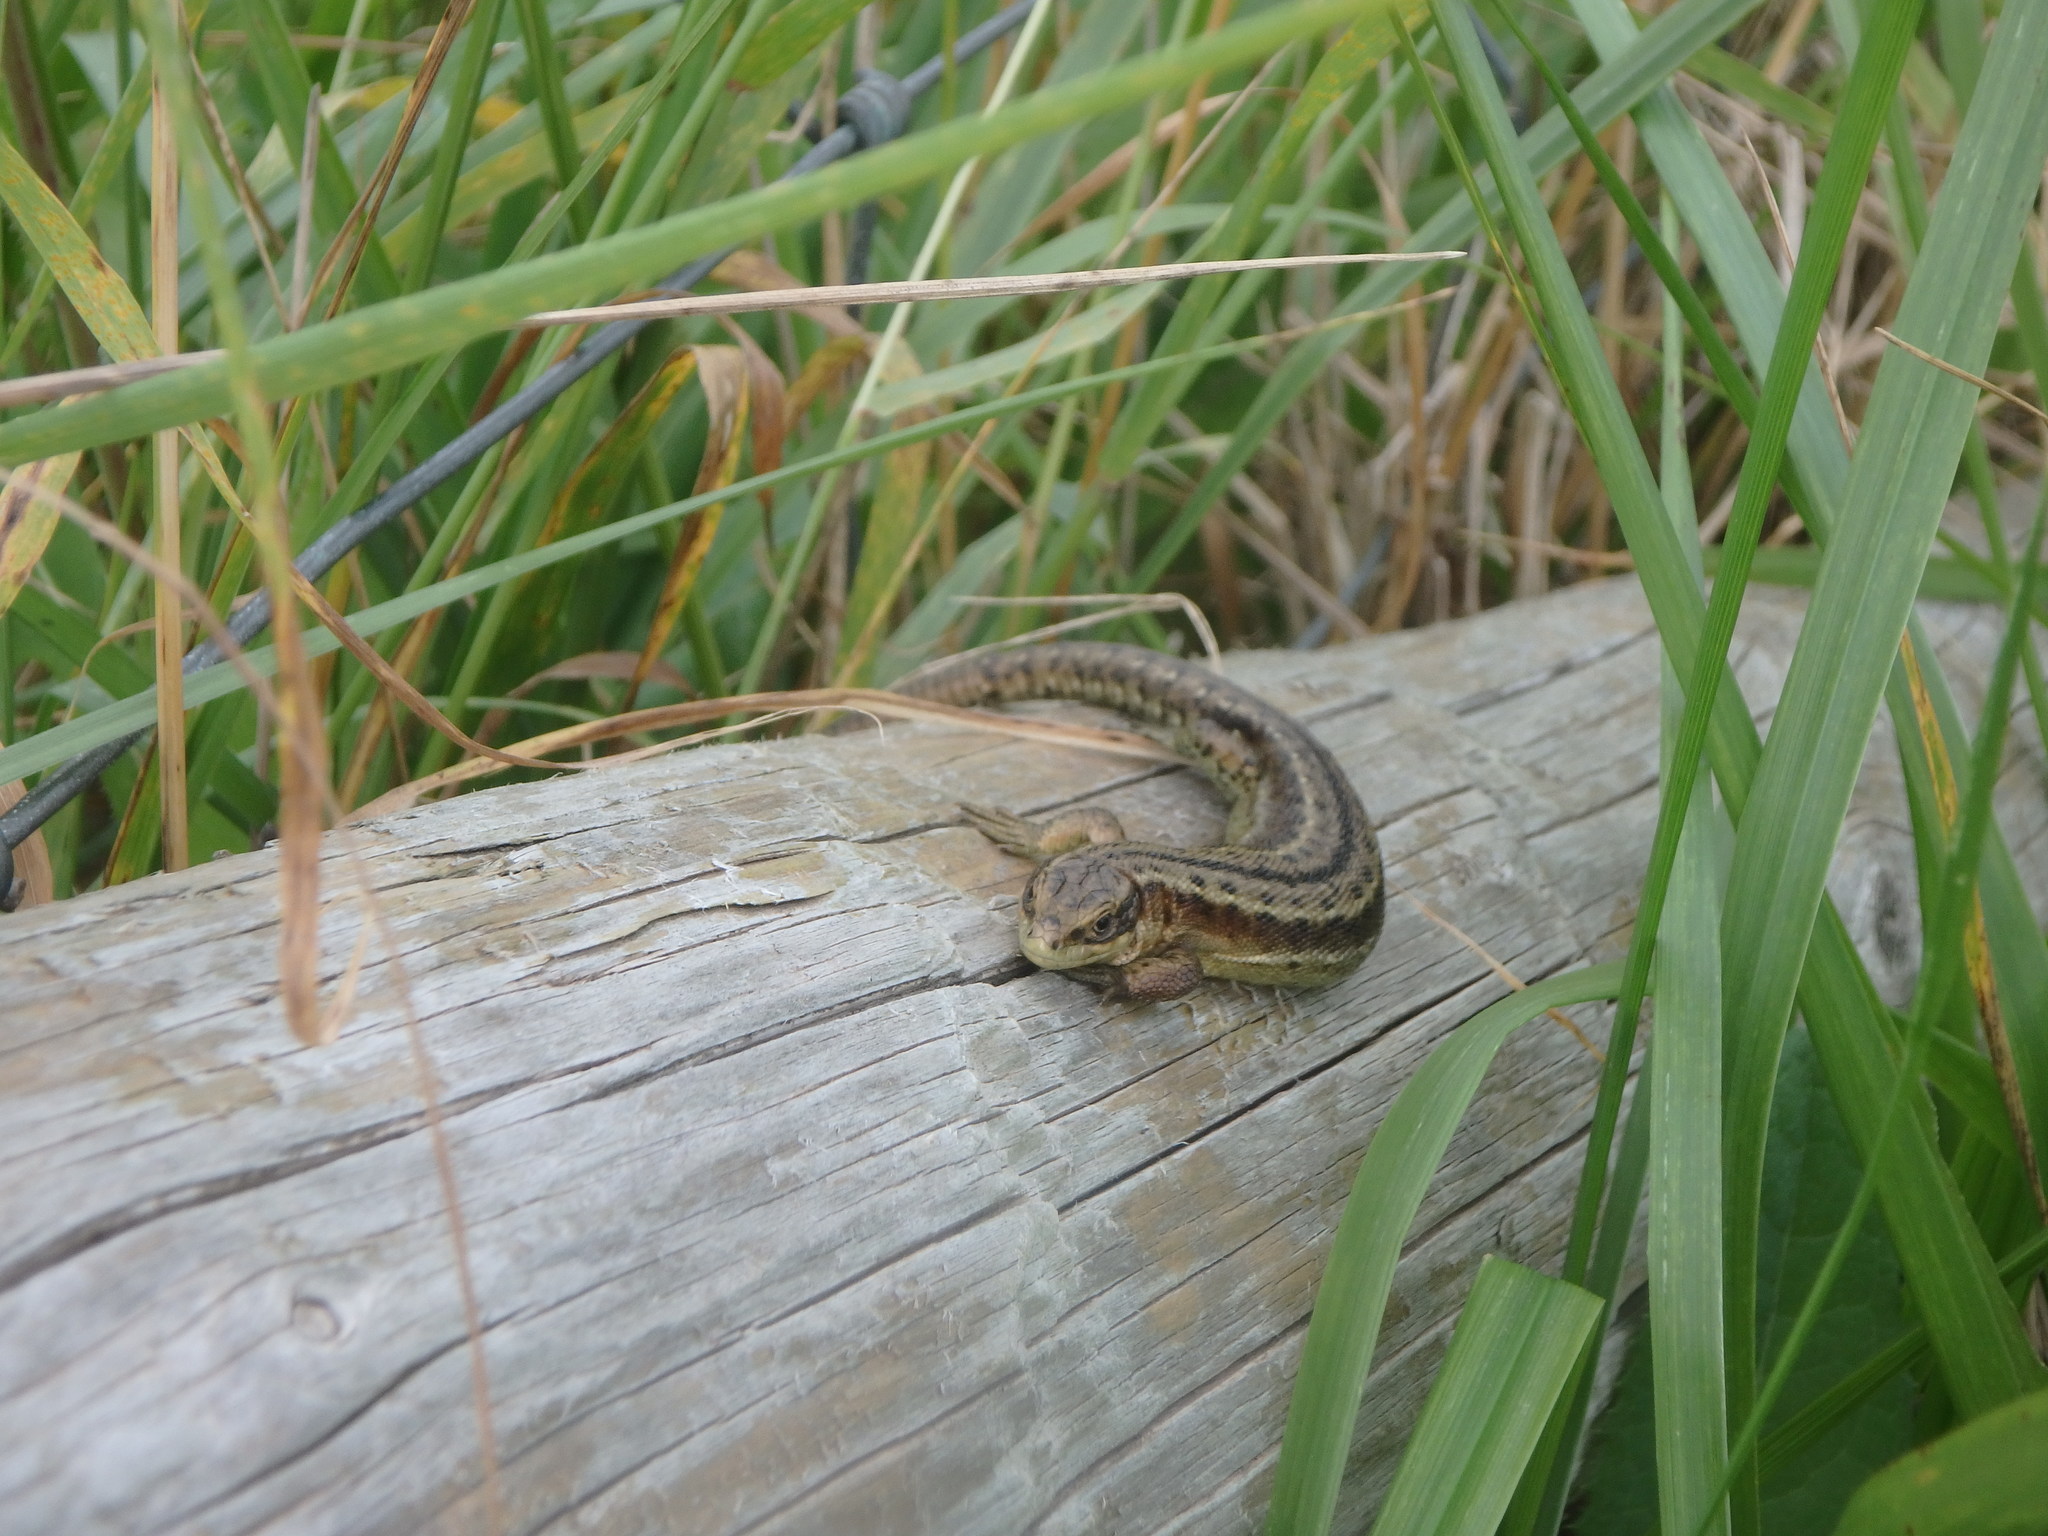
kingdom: Animalia
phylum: Chordata
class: Squamata
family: Lacertidae
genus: Zootoca
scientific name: Zootoca vivipara
